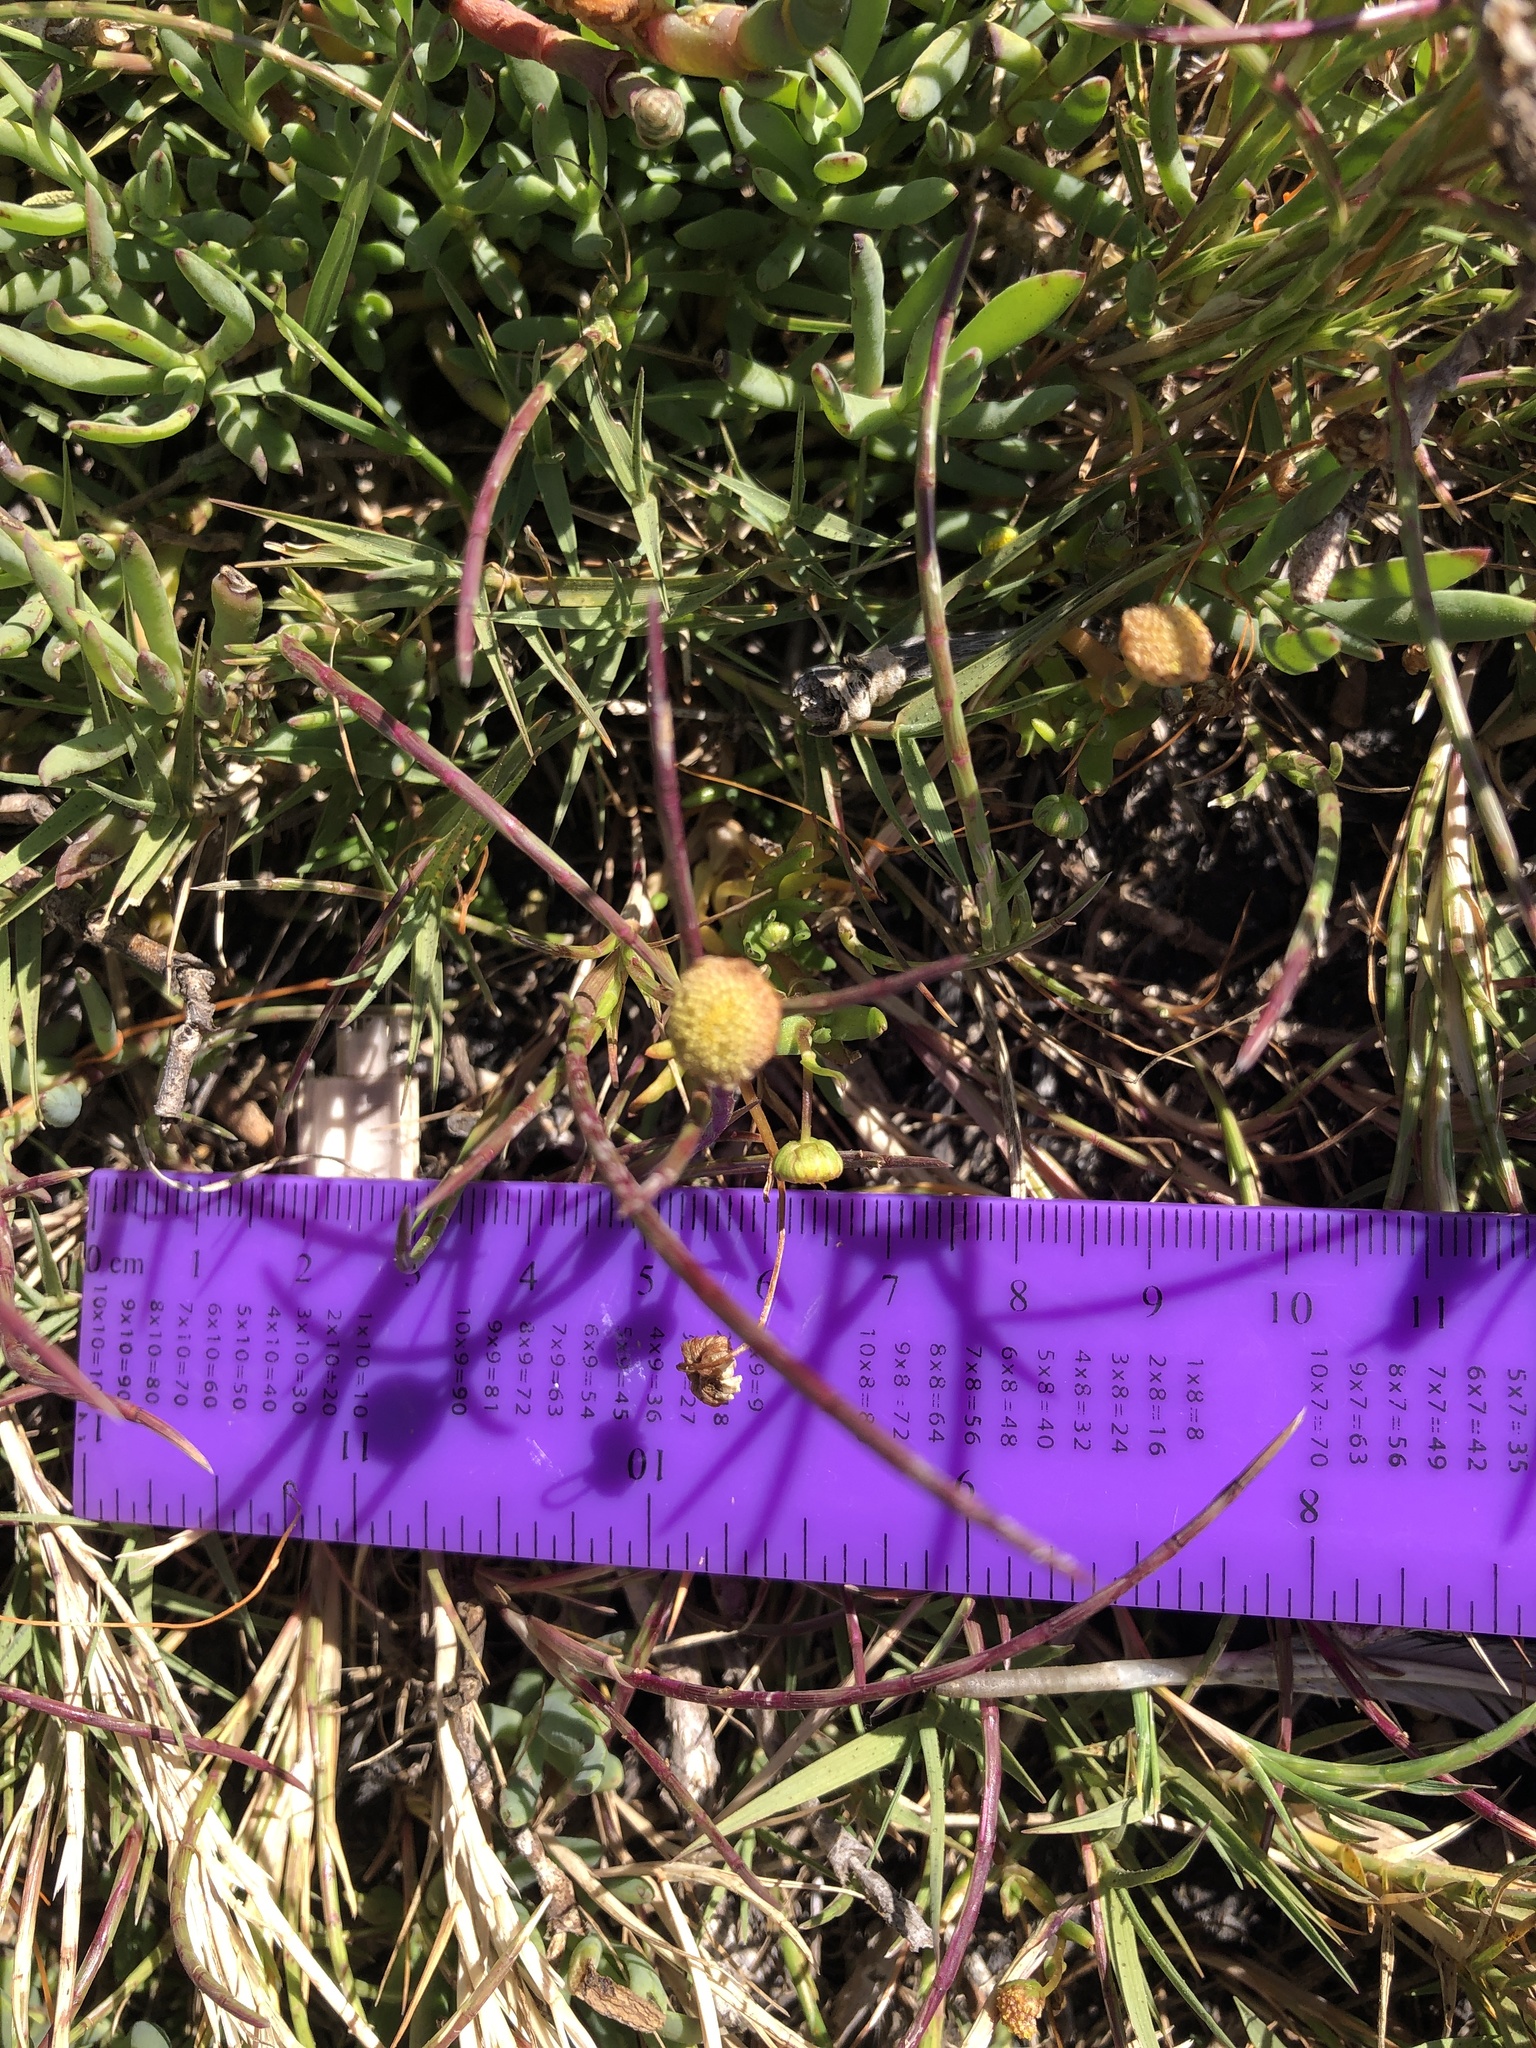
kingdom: Plantae
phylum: Tracheophyta
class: Magnoliopsida
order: Asterales
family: Asteraceae
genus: Cotula
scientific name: Cotula coronopifolia
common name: Buttonweed
